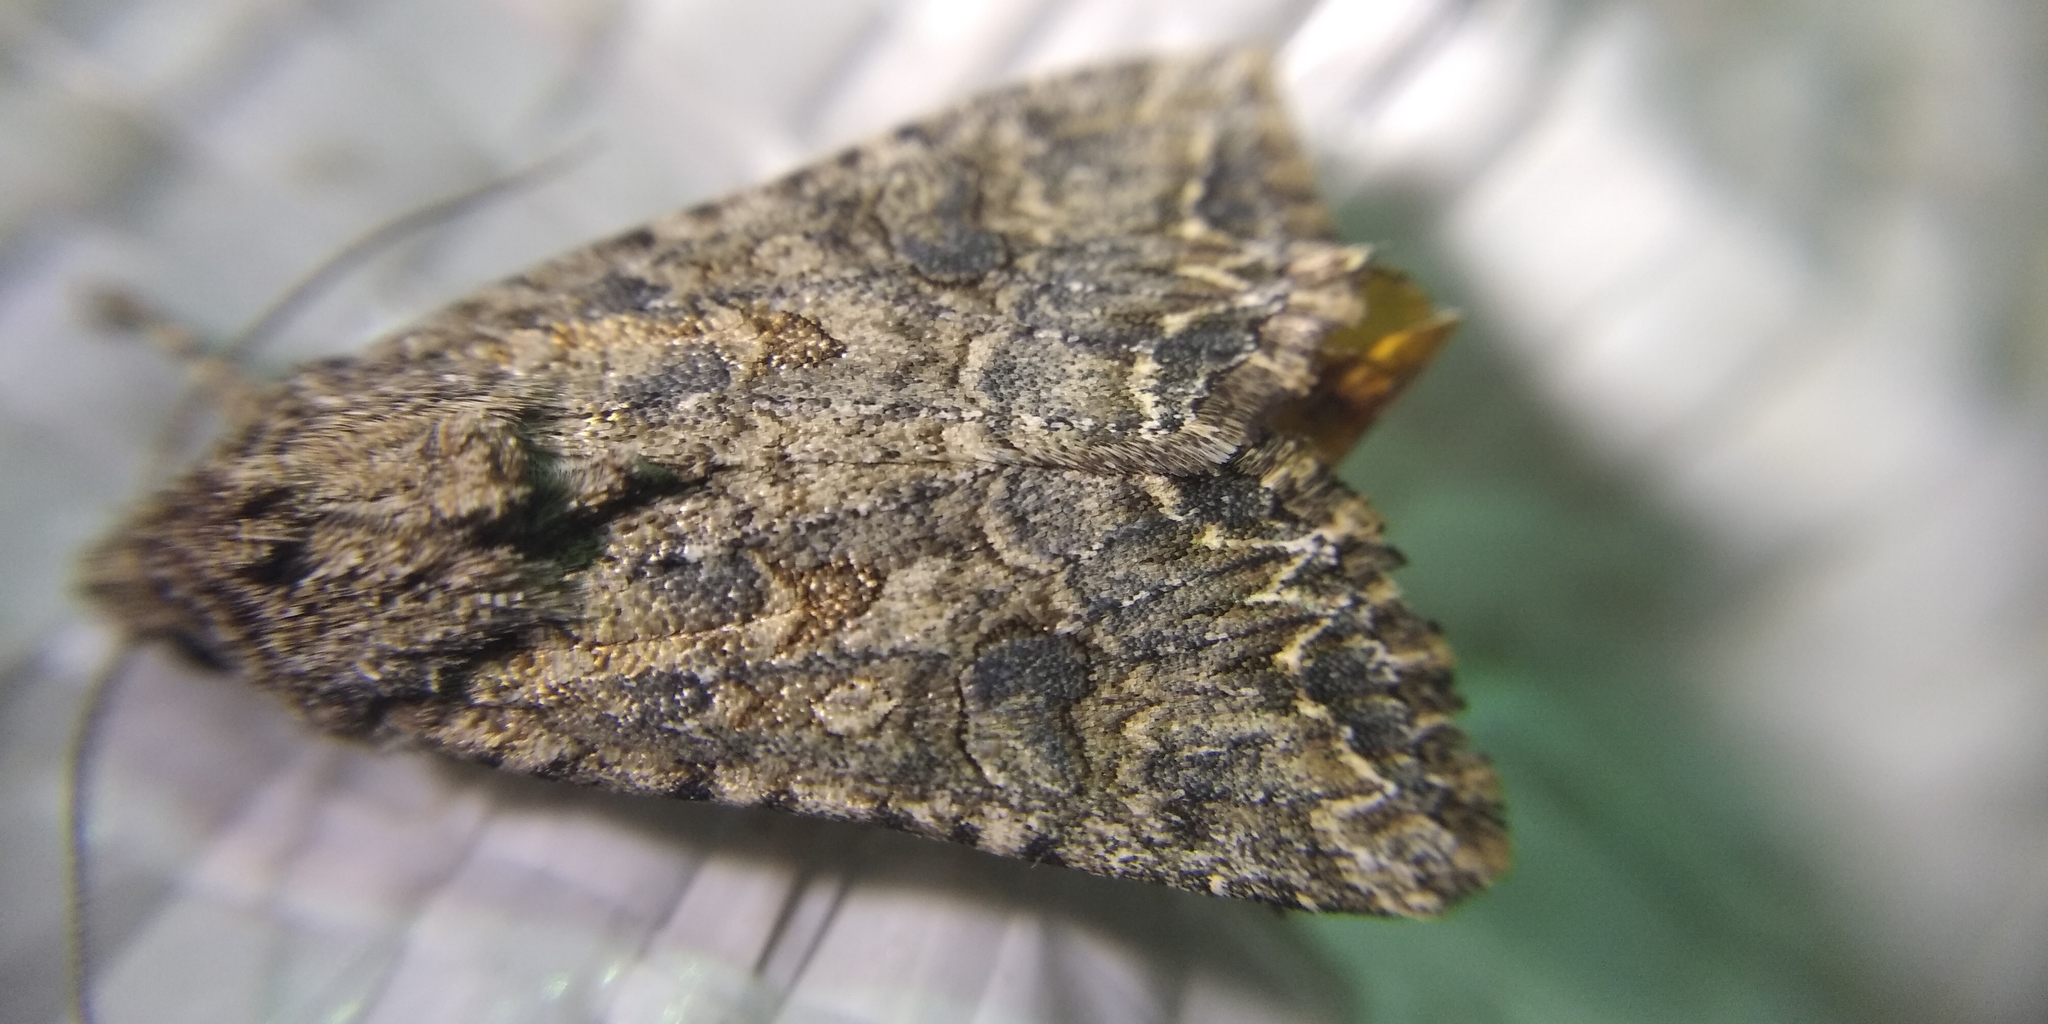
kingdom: Animalia
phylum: Arthropoda
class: Insecta
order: Lepidoptera
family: Noctuidae
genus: Anarta
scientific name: Anarta trifolii
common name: Clover cutworm moth
